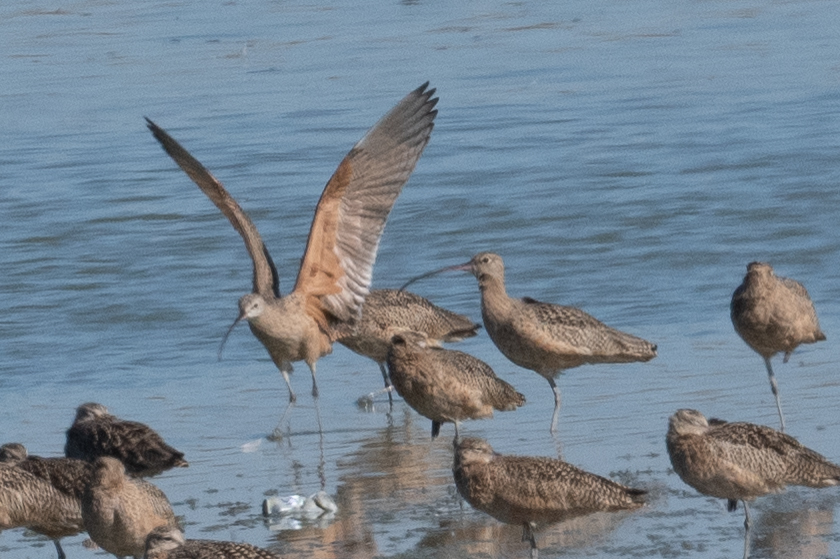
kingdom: Animalia
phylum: Chordata
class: Aves
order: Charadriiformes
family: Scolopacidae
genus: Numenius
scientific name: Numenius americanus
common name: Long-billed curlew
